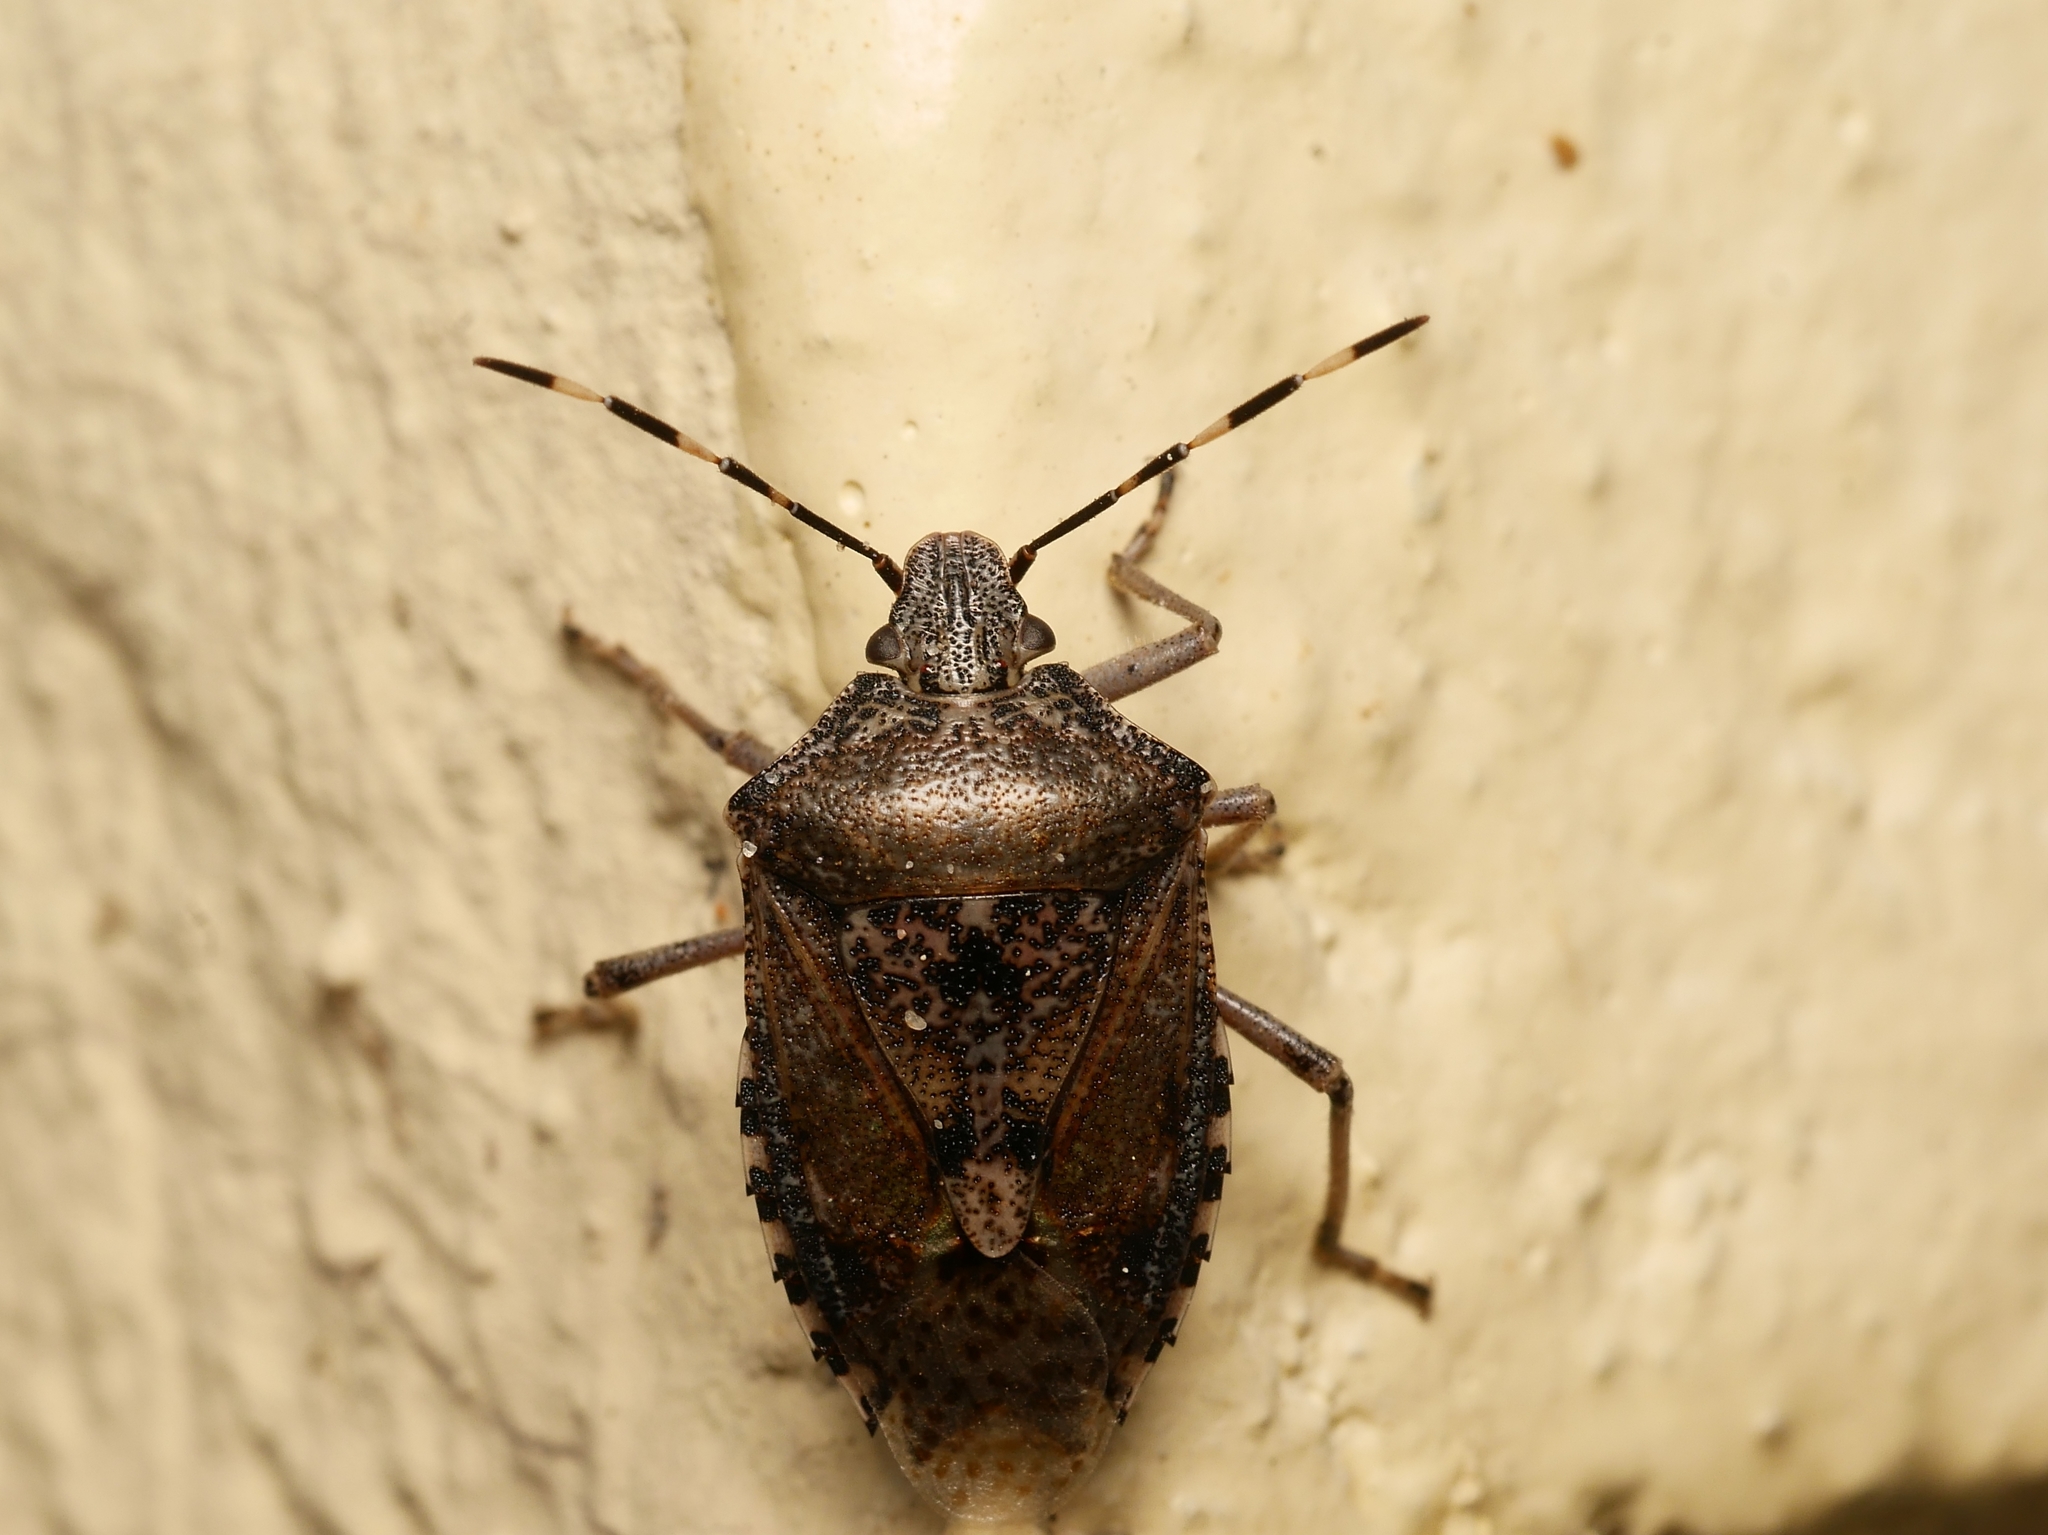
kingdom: Animalia
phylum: Arthropoda
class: Insecta
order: Hemiptera
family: Pentatomidae
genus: Rhaphigaster
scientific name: Rhaphigaster nebulosa
